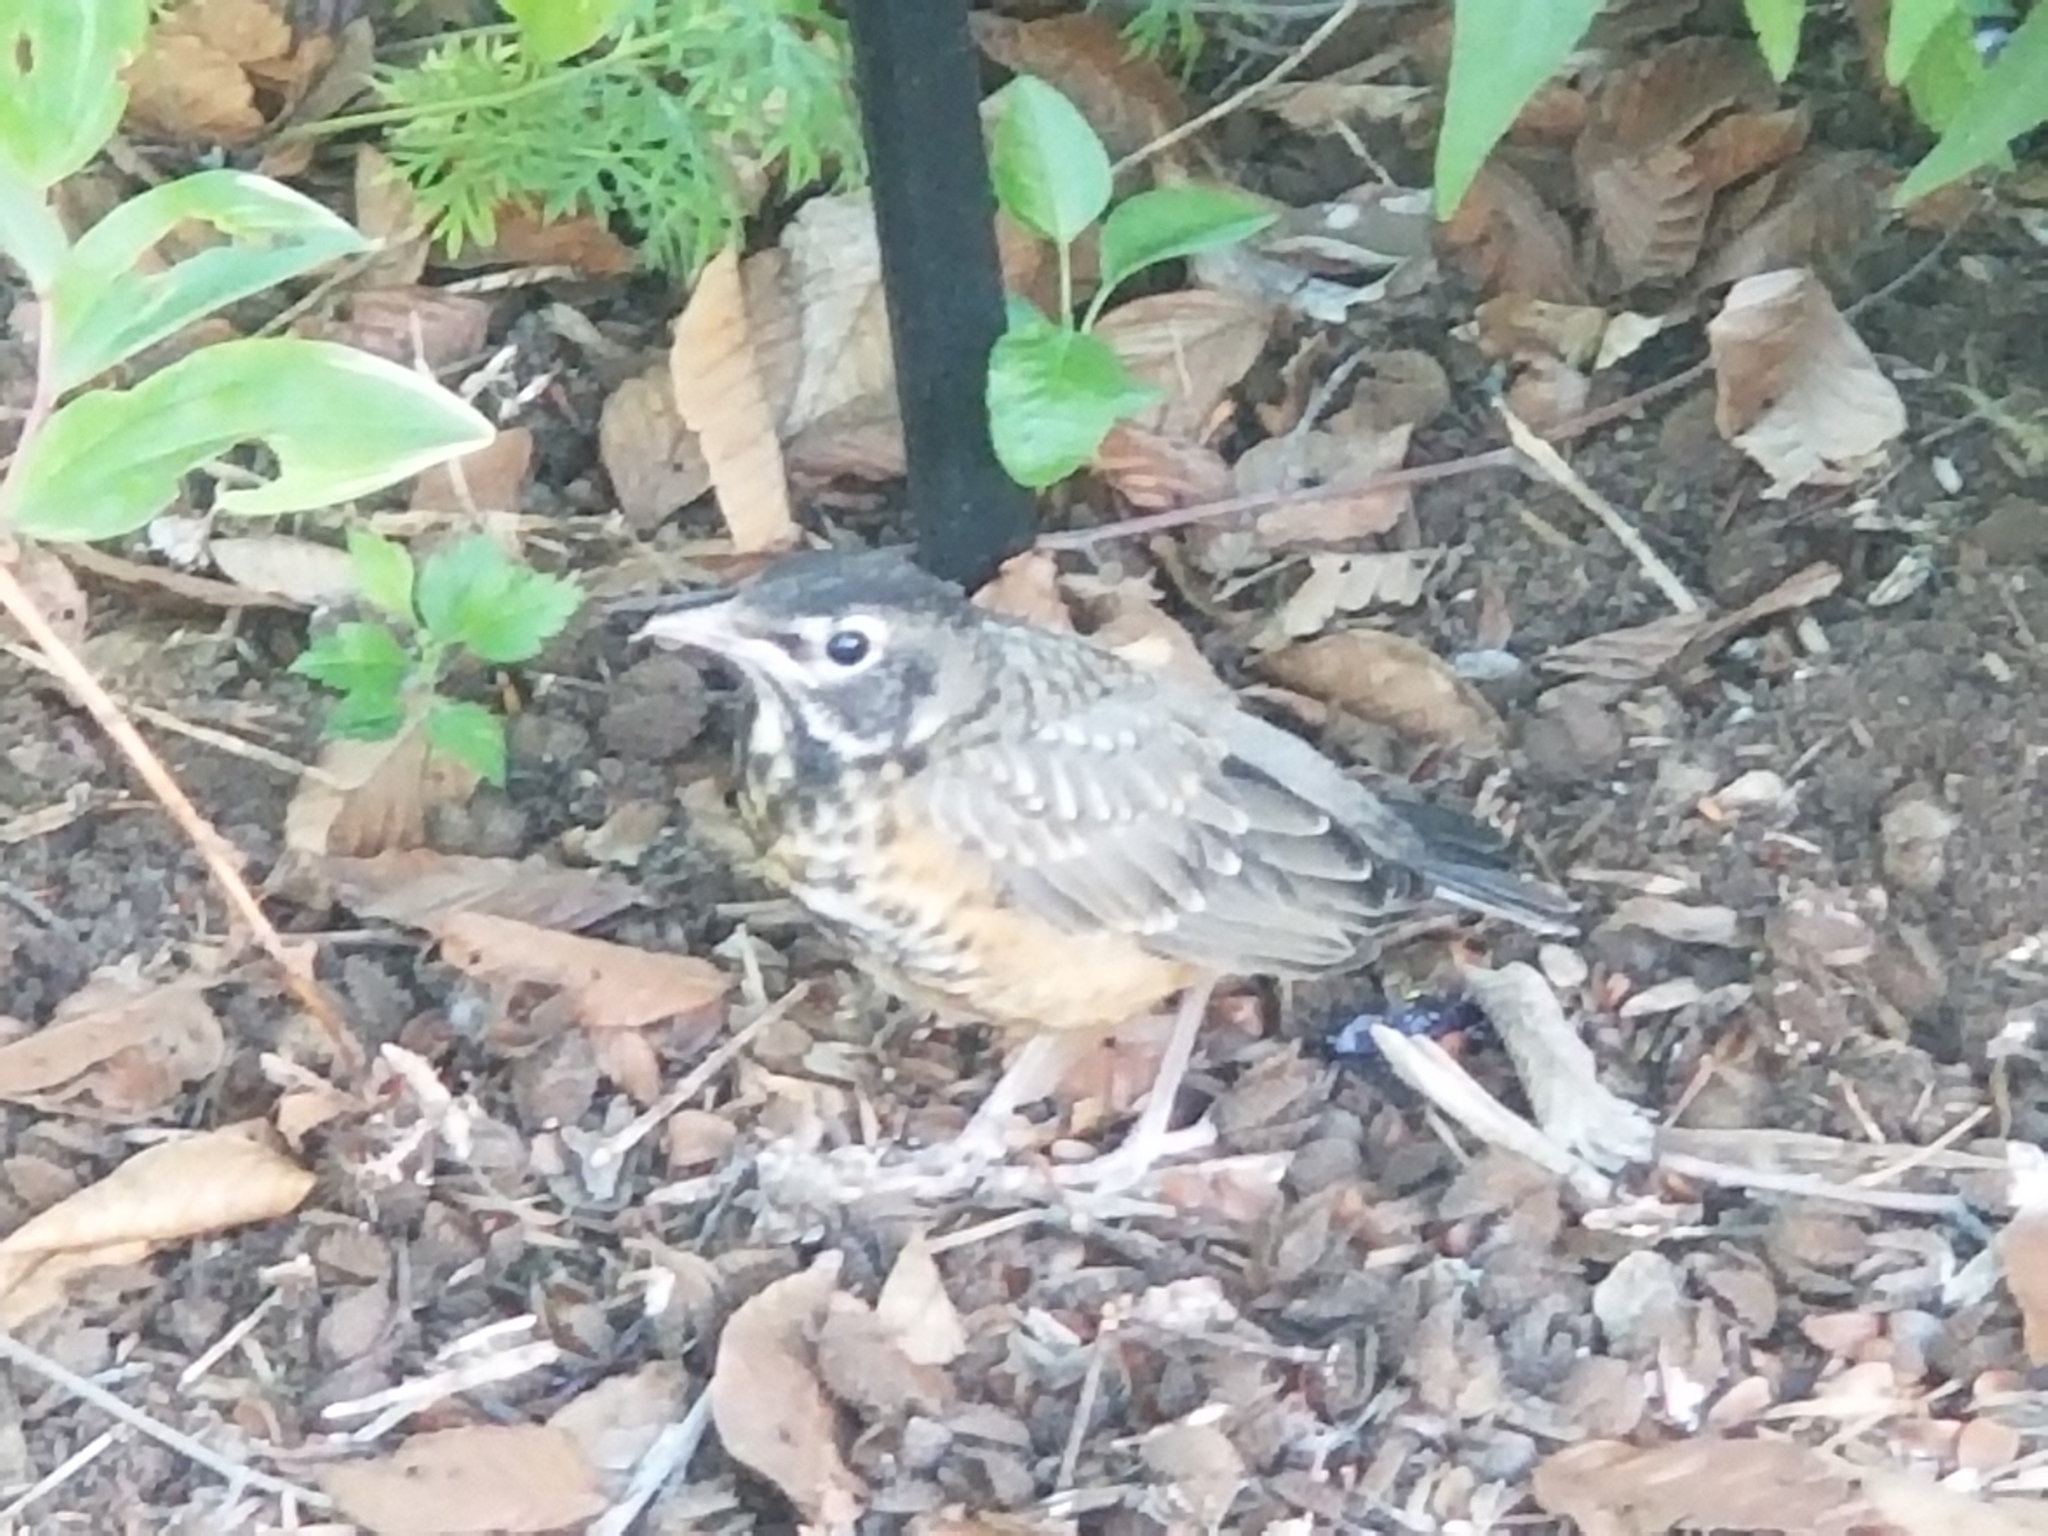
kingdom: Animalia
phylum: Chordata
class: Aves
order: Passeriformes
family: Turdidae
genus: Turdus
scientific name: Turdus migratorius
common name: American robin
